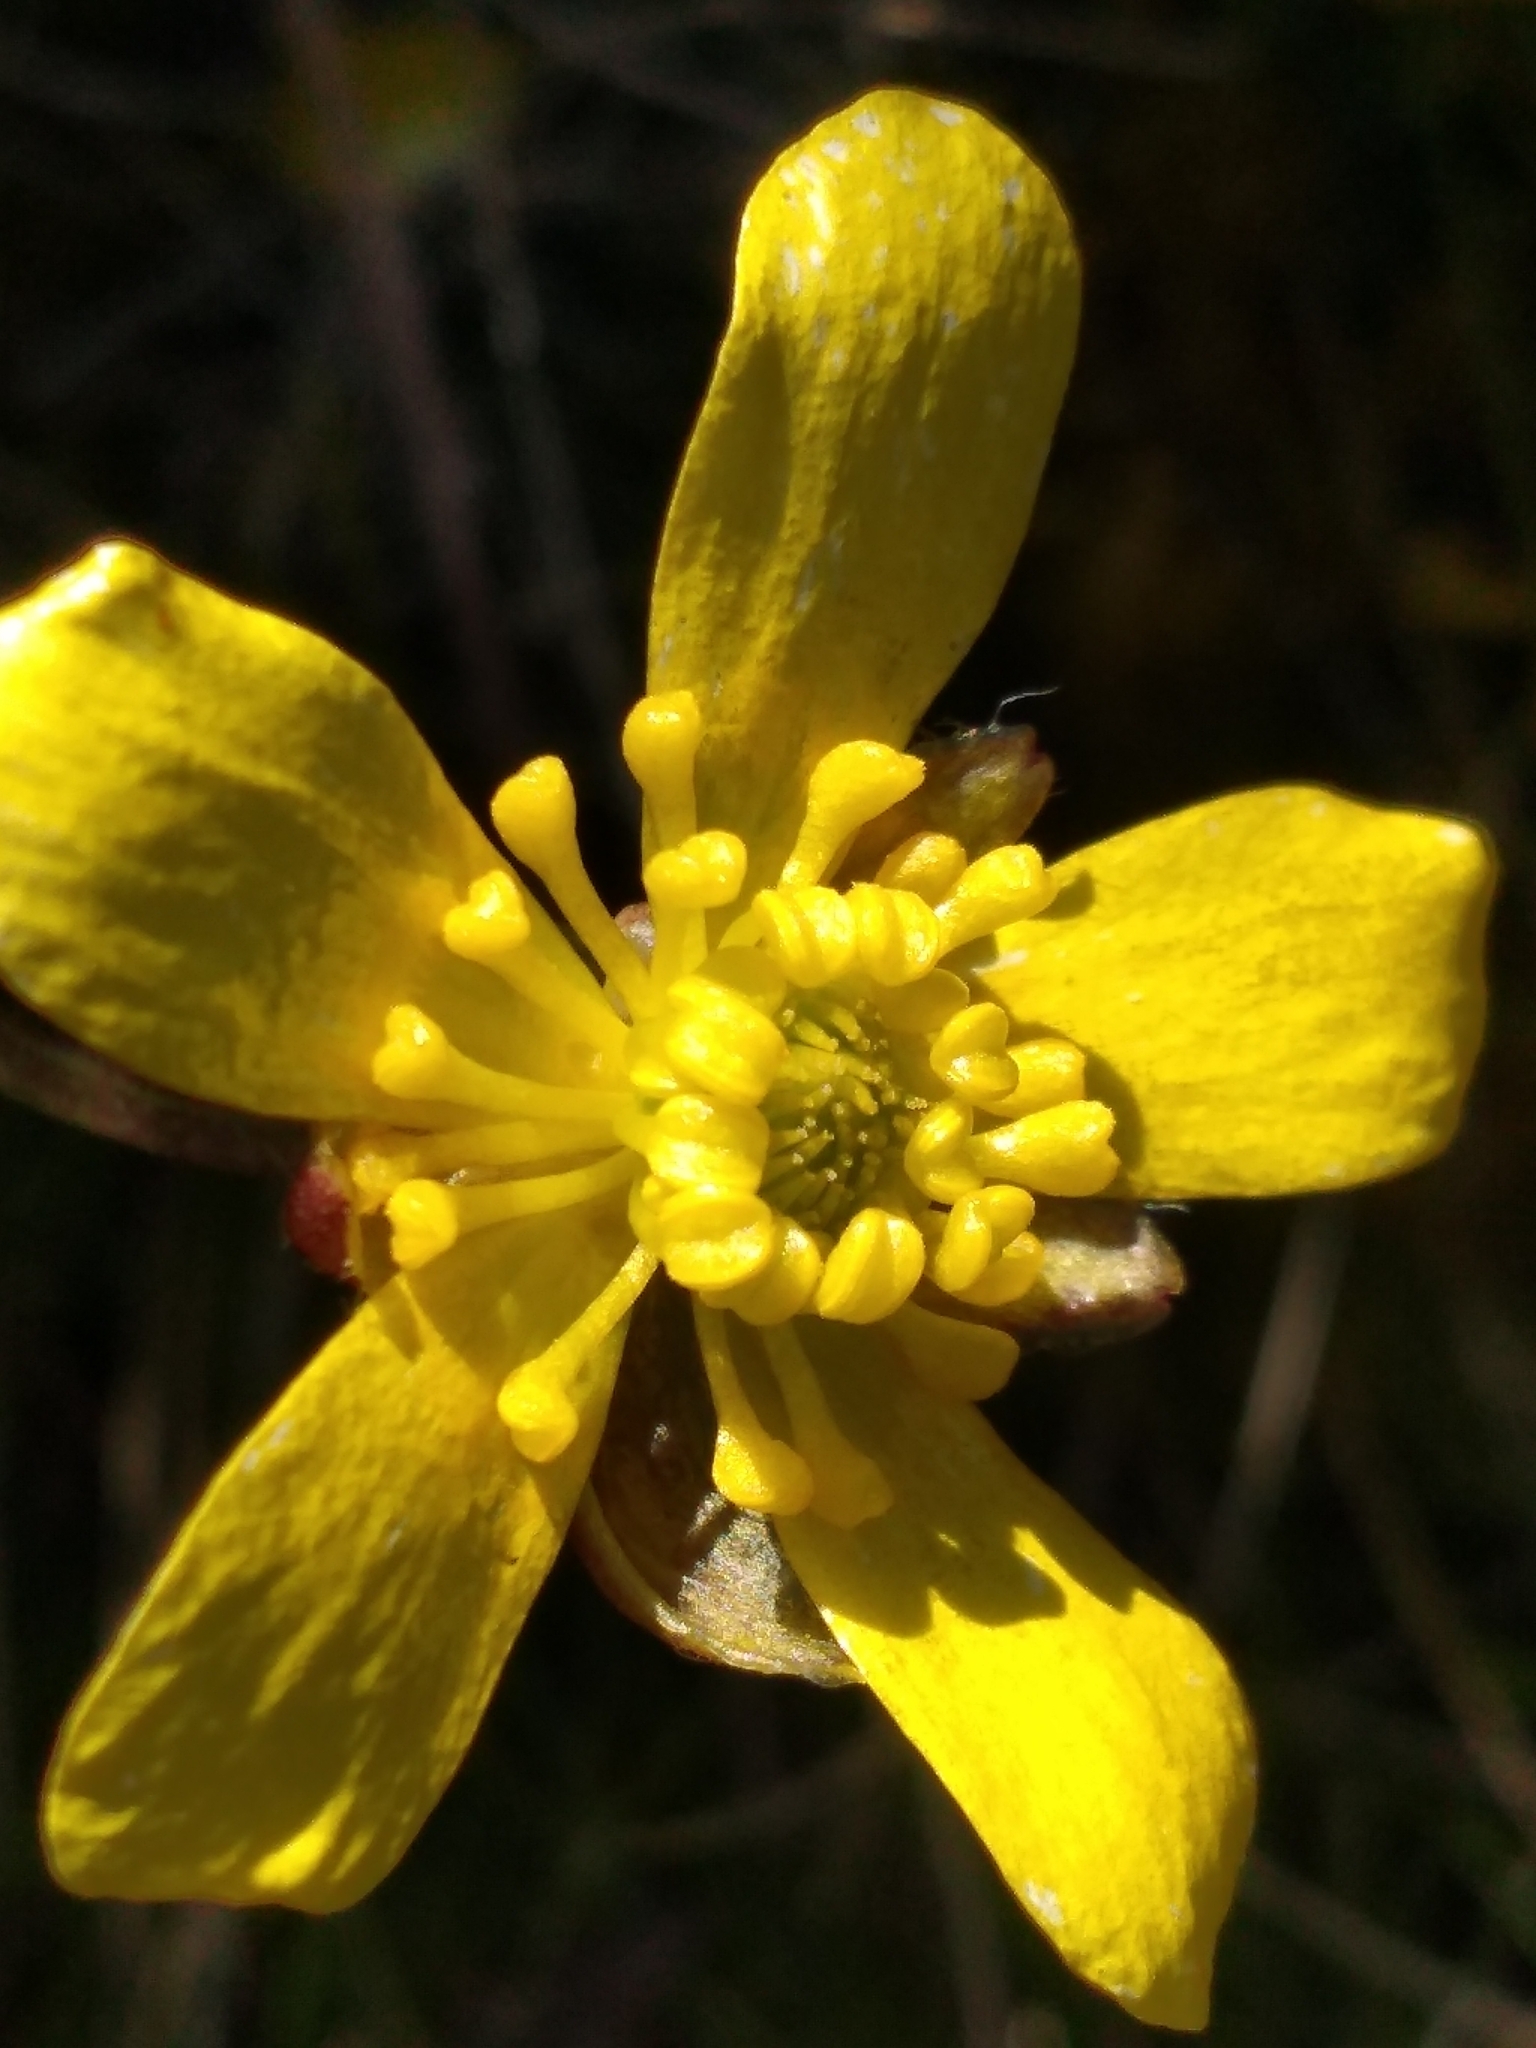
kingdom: Plantae
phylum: Tracheophyta
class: Magnoliopsida
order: Ranunculales
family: Ranunculaceae
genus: Ranunculus
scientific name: Ranunculus insignis
